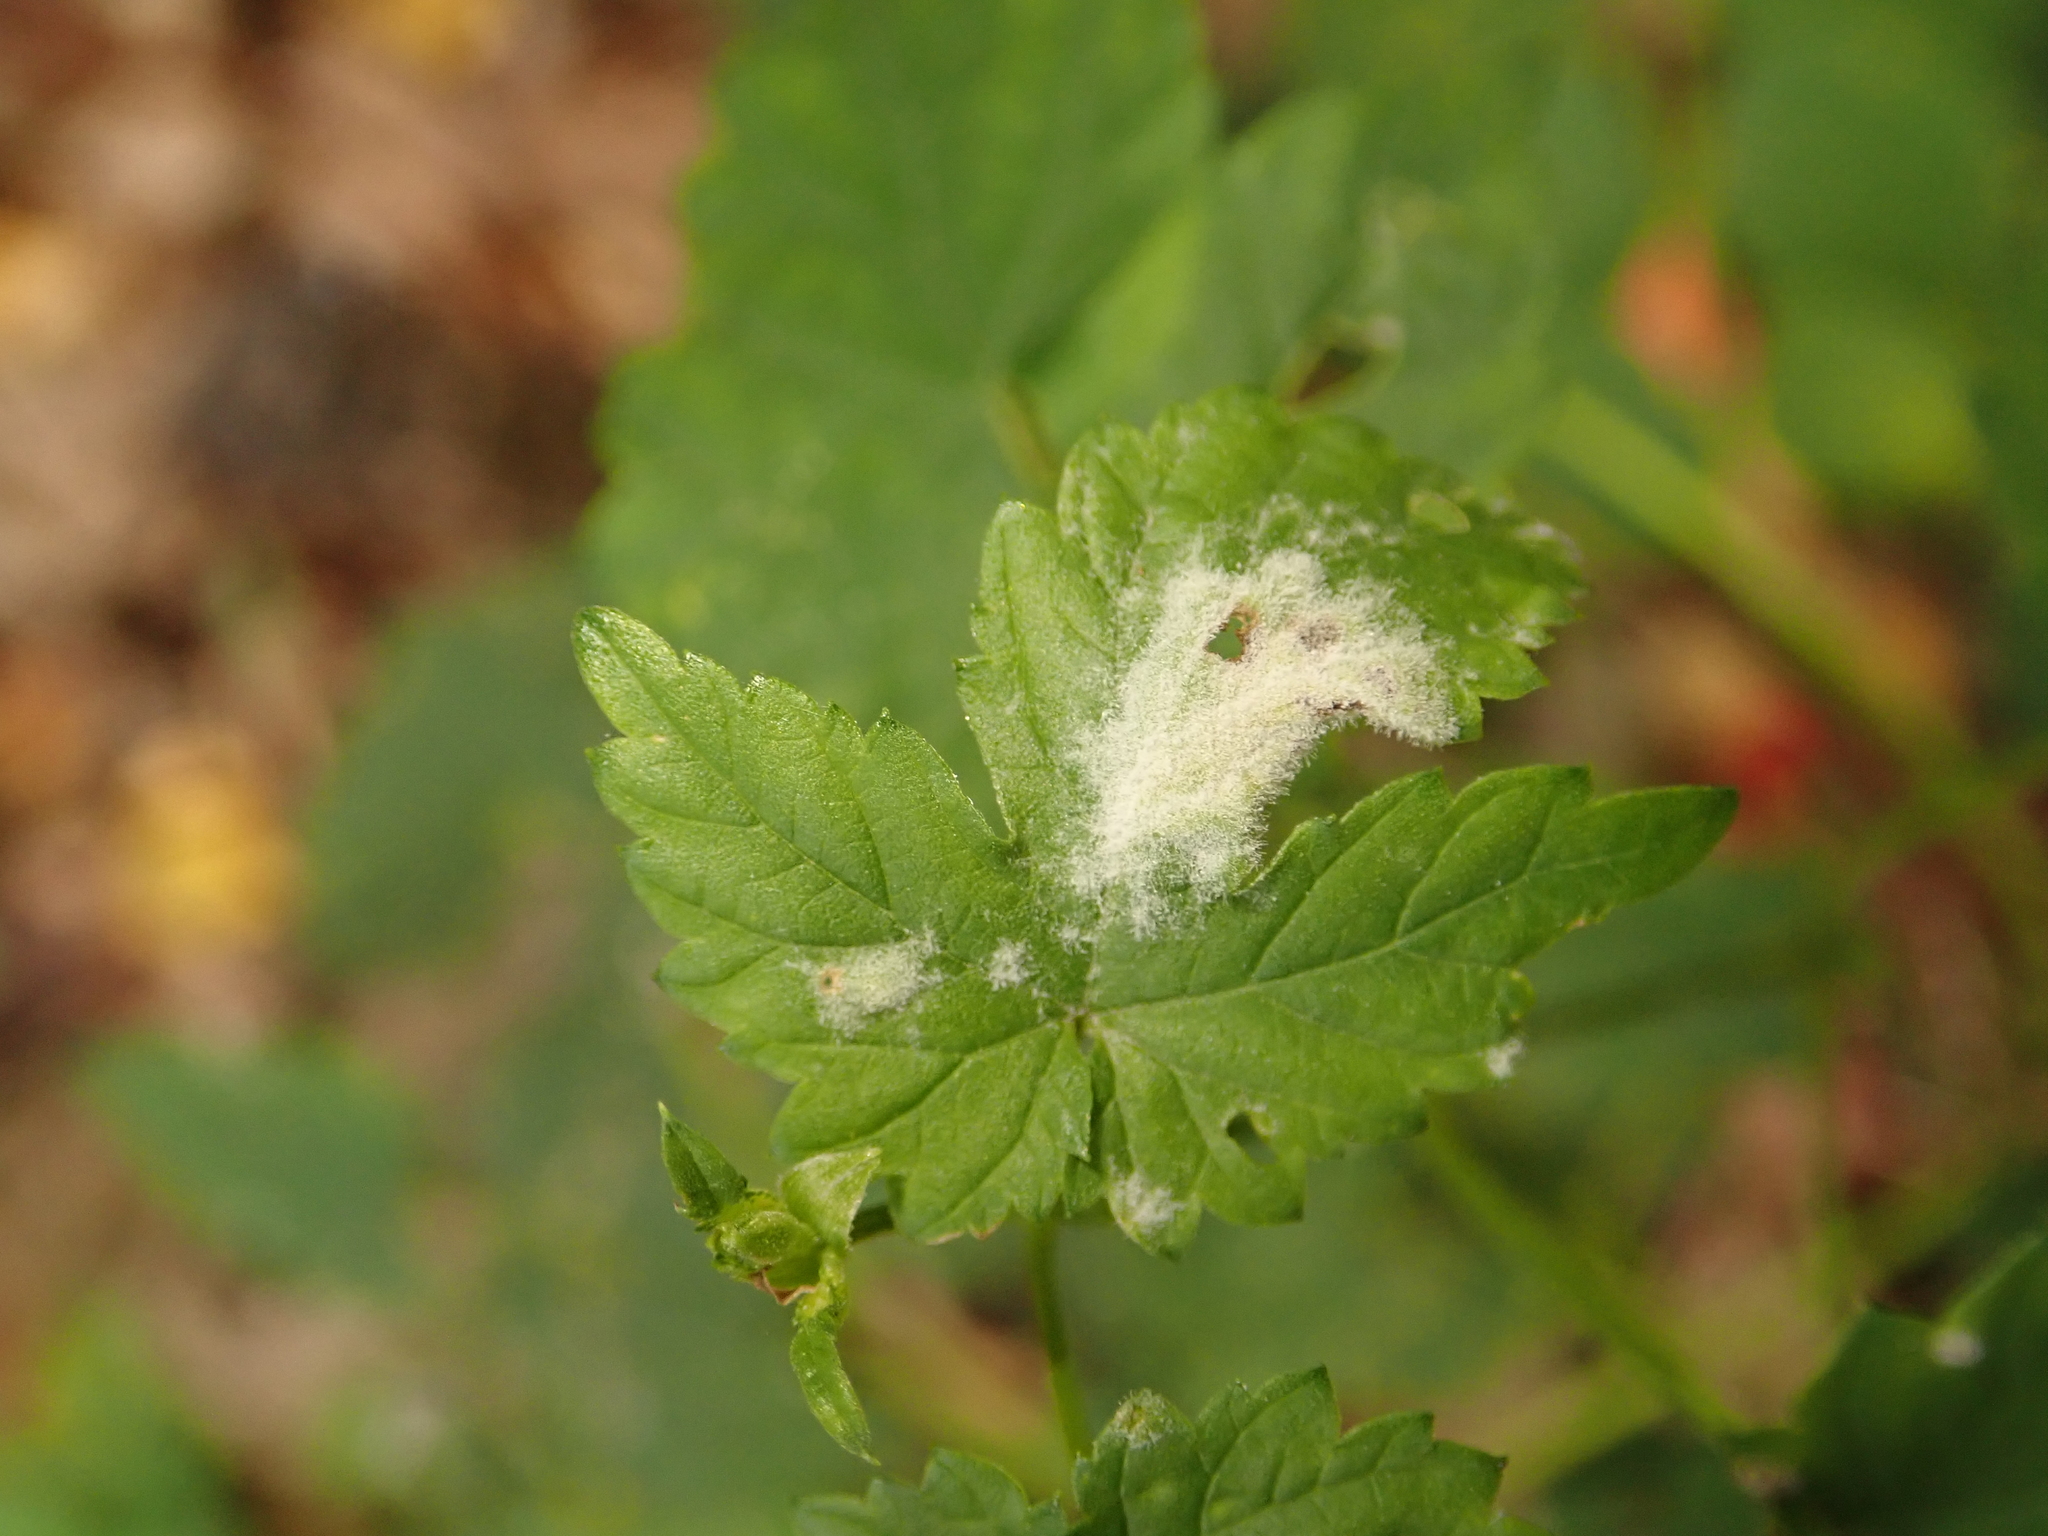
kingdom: Fungi
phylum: Ascomycota
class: Leotiomycetes
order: Helotiales
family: Erysiphaceae
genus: Podosphaera
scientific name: Podosphaera macularis
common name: Powdery mildew
